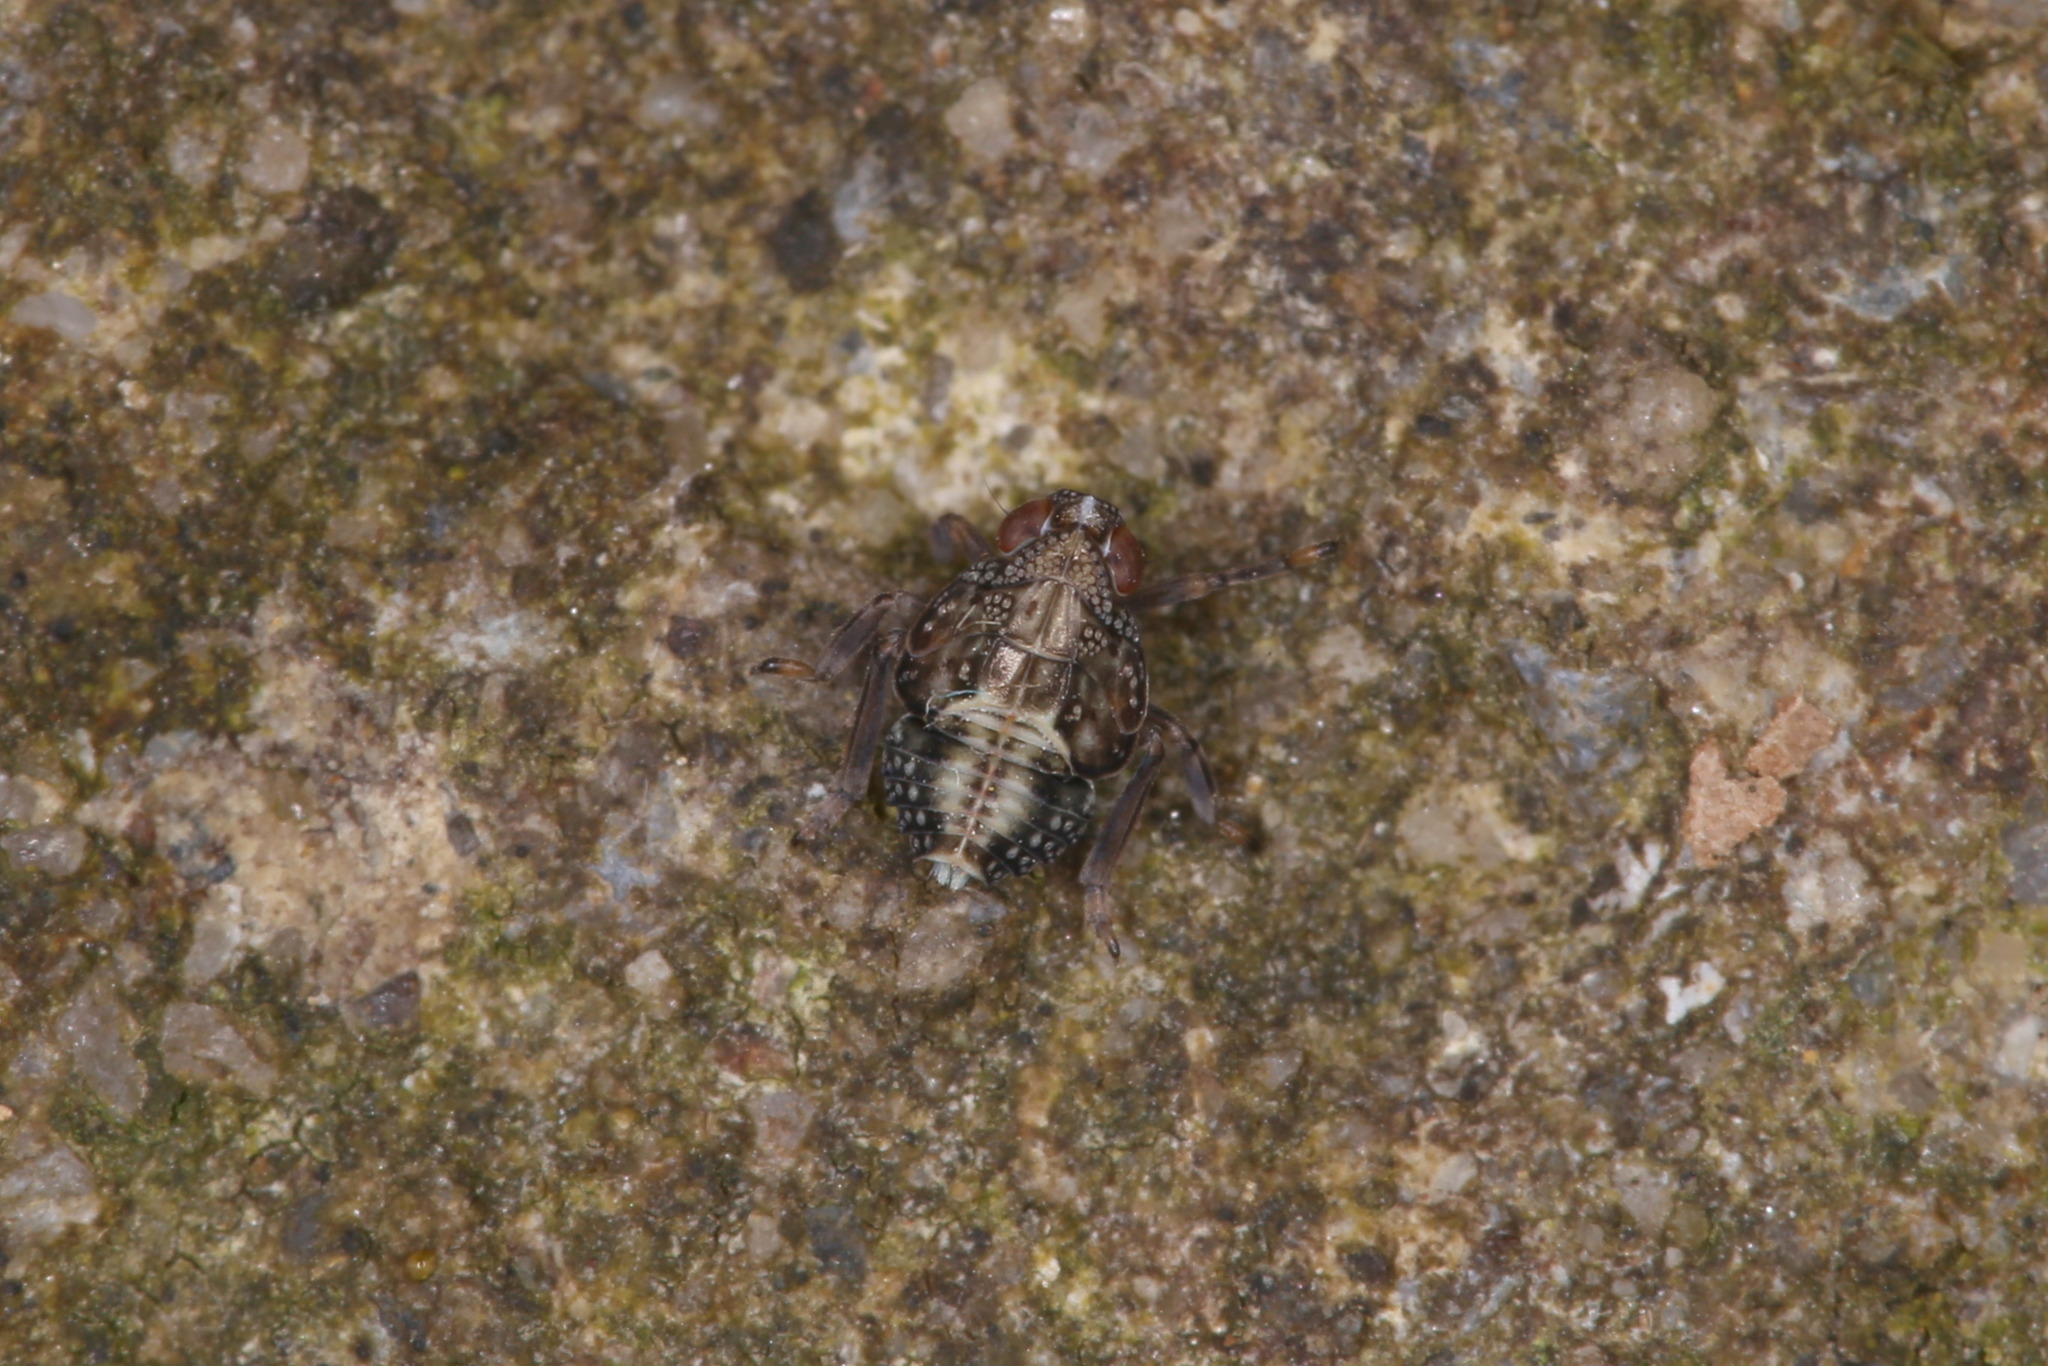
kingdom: Animalia
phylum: Arthropoda
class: Insecta
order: Hemiptera
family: Issidae
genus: Issus
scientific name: Issus coleoptratus
